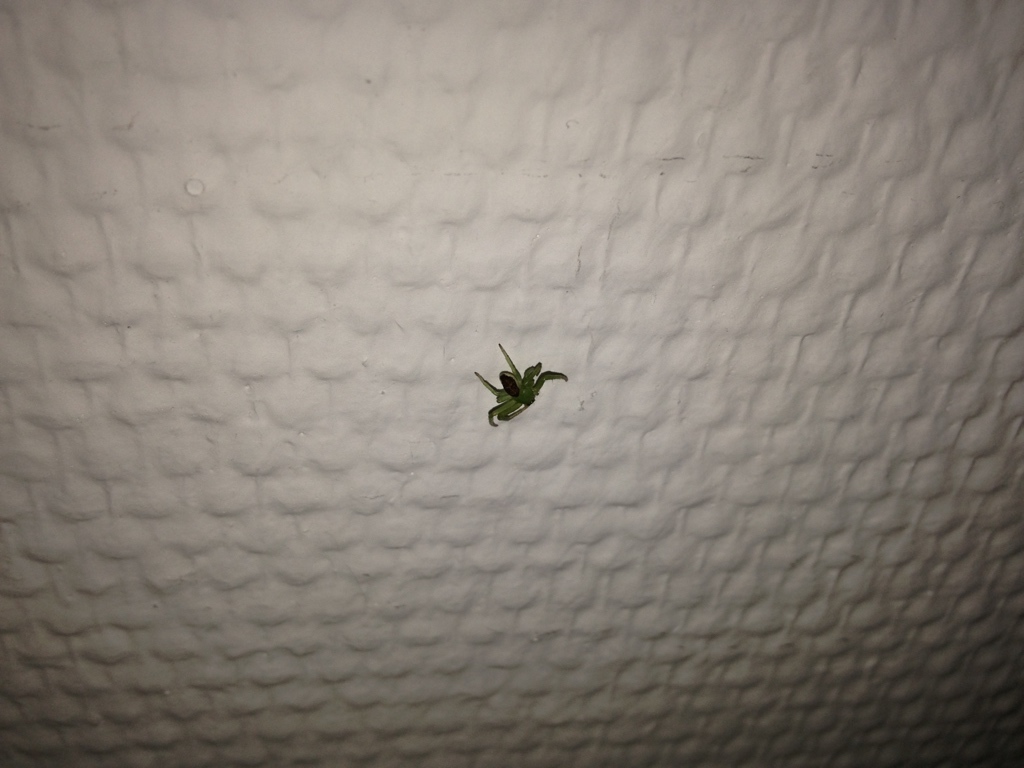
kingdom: Animalia
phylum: Arthropoda
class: Arachnida
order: Araneae
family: Thomisidae
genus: Diaea
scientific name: Diaea dorsata
